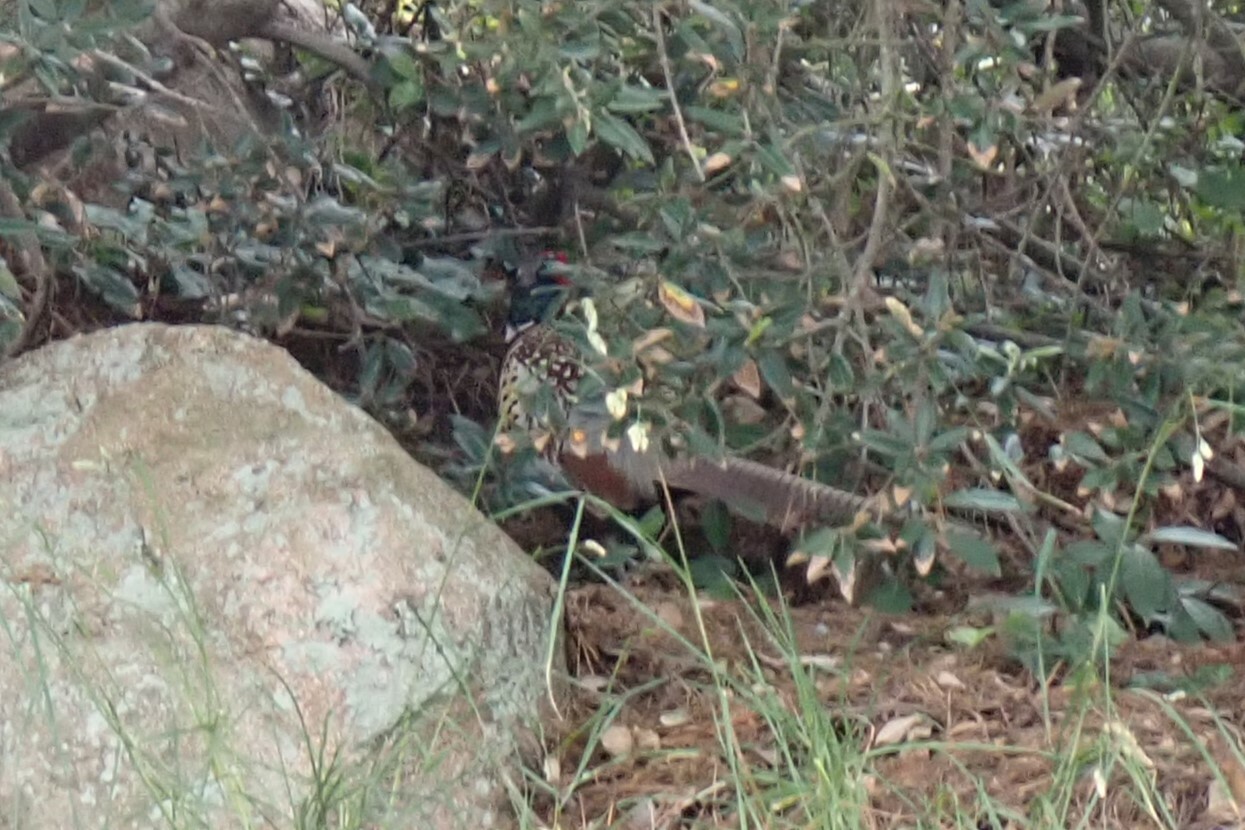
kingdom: Animalia
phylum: Chordata
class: Aves
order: Galliformes
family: Phasianidae
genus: Phasianus
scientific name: Phasianus colchicus
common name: Common pheasant
